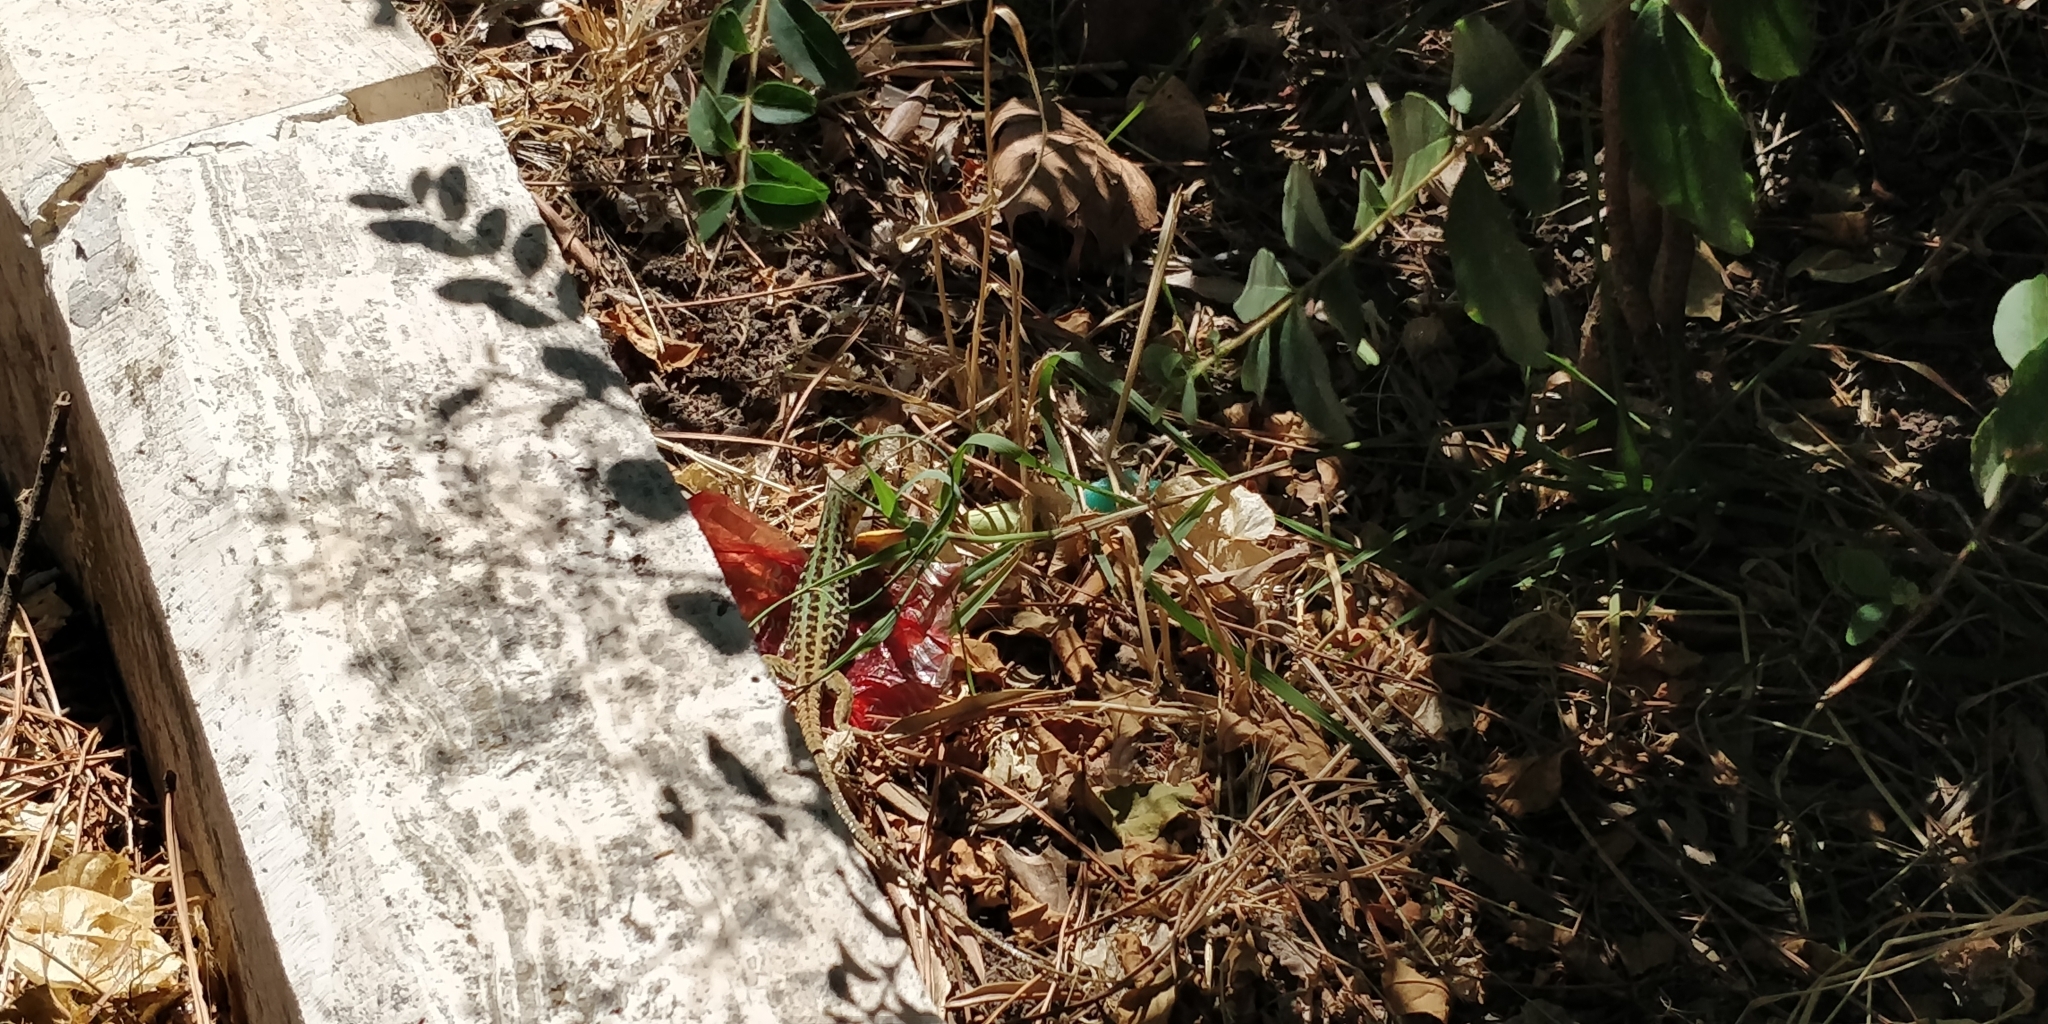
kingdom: Animalia
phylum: Chordata
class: Squamata
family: Lacertidae
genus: Podarcis
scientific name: Podarcis siculus
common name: Italian wall lizard
